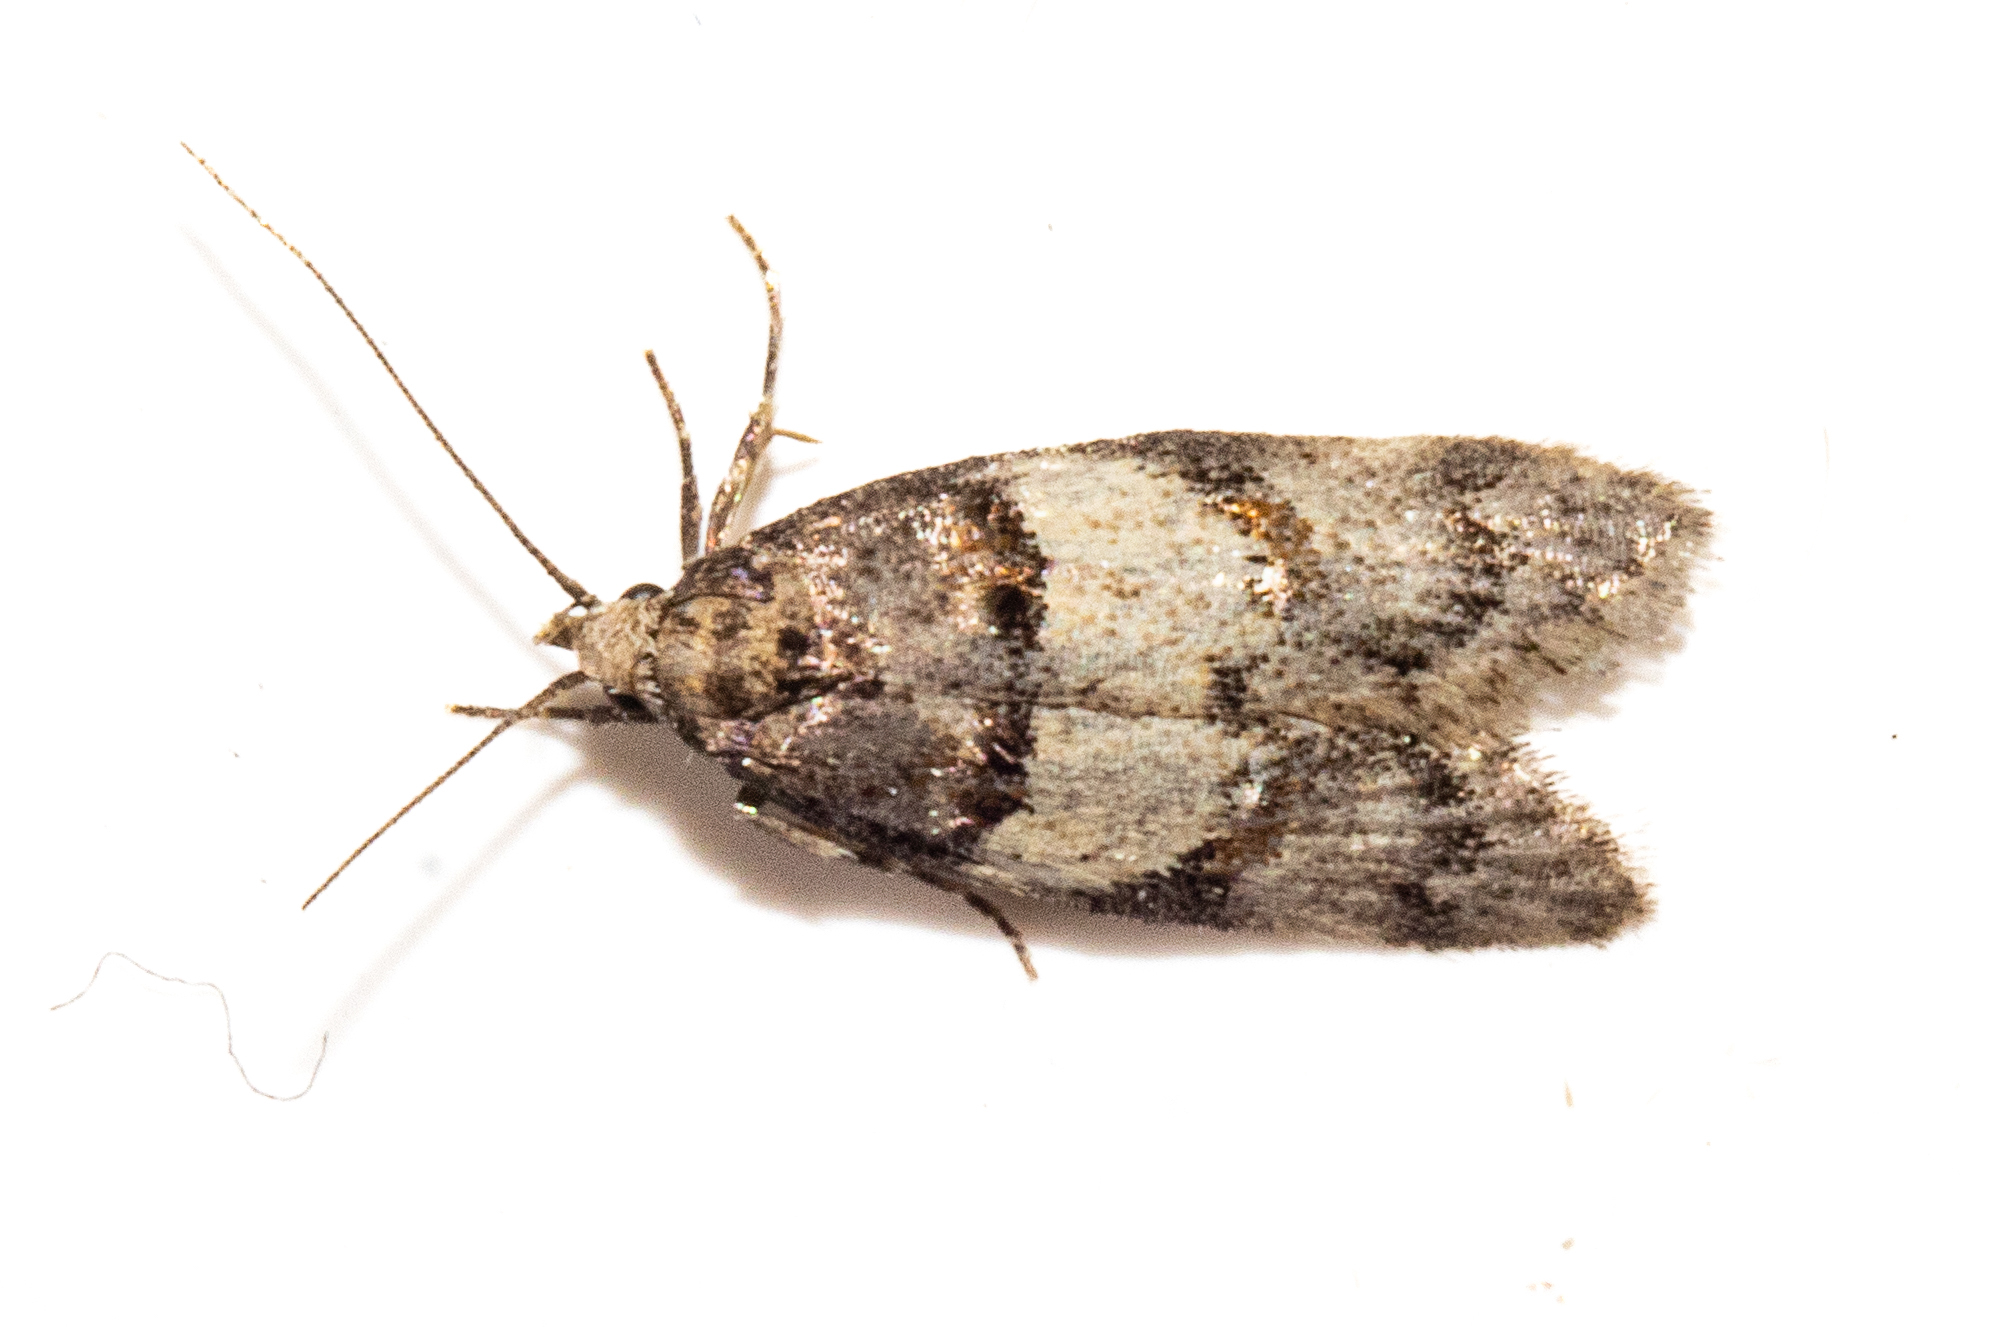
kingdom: Animalia
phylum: Arthropoda
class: Insecta
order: Lepidoptera
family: Oecophoridae
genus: Trachypepla
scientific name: Trachypepla contritella
